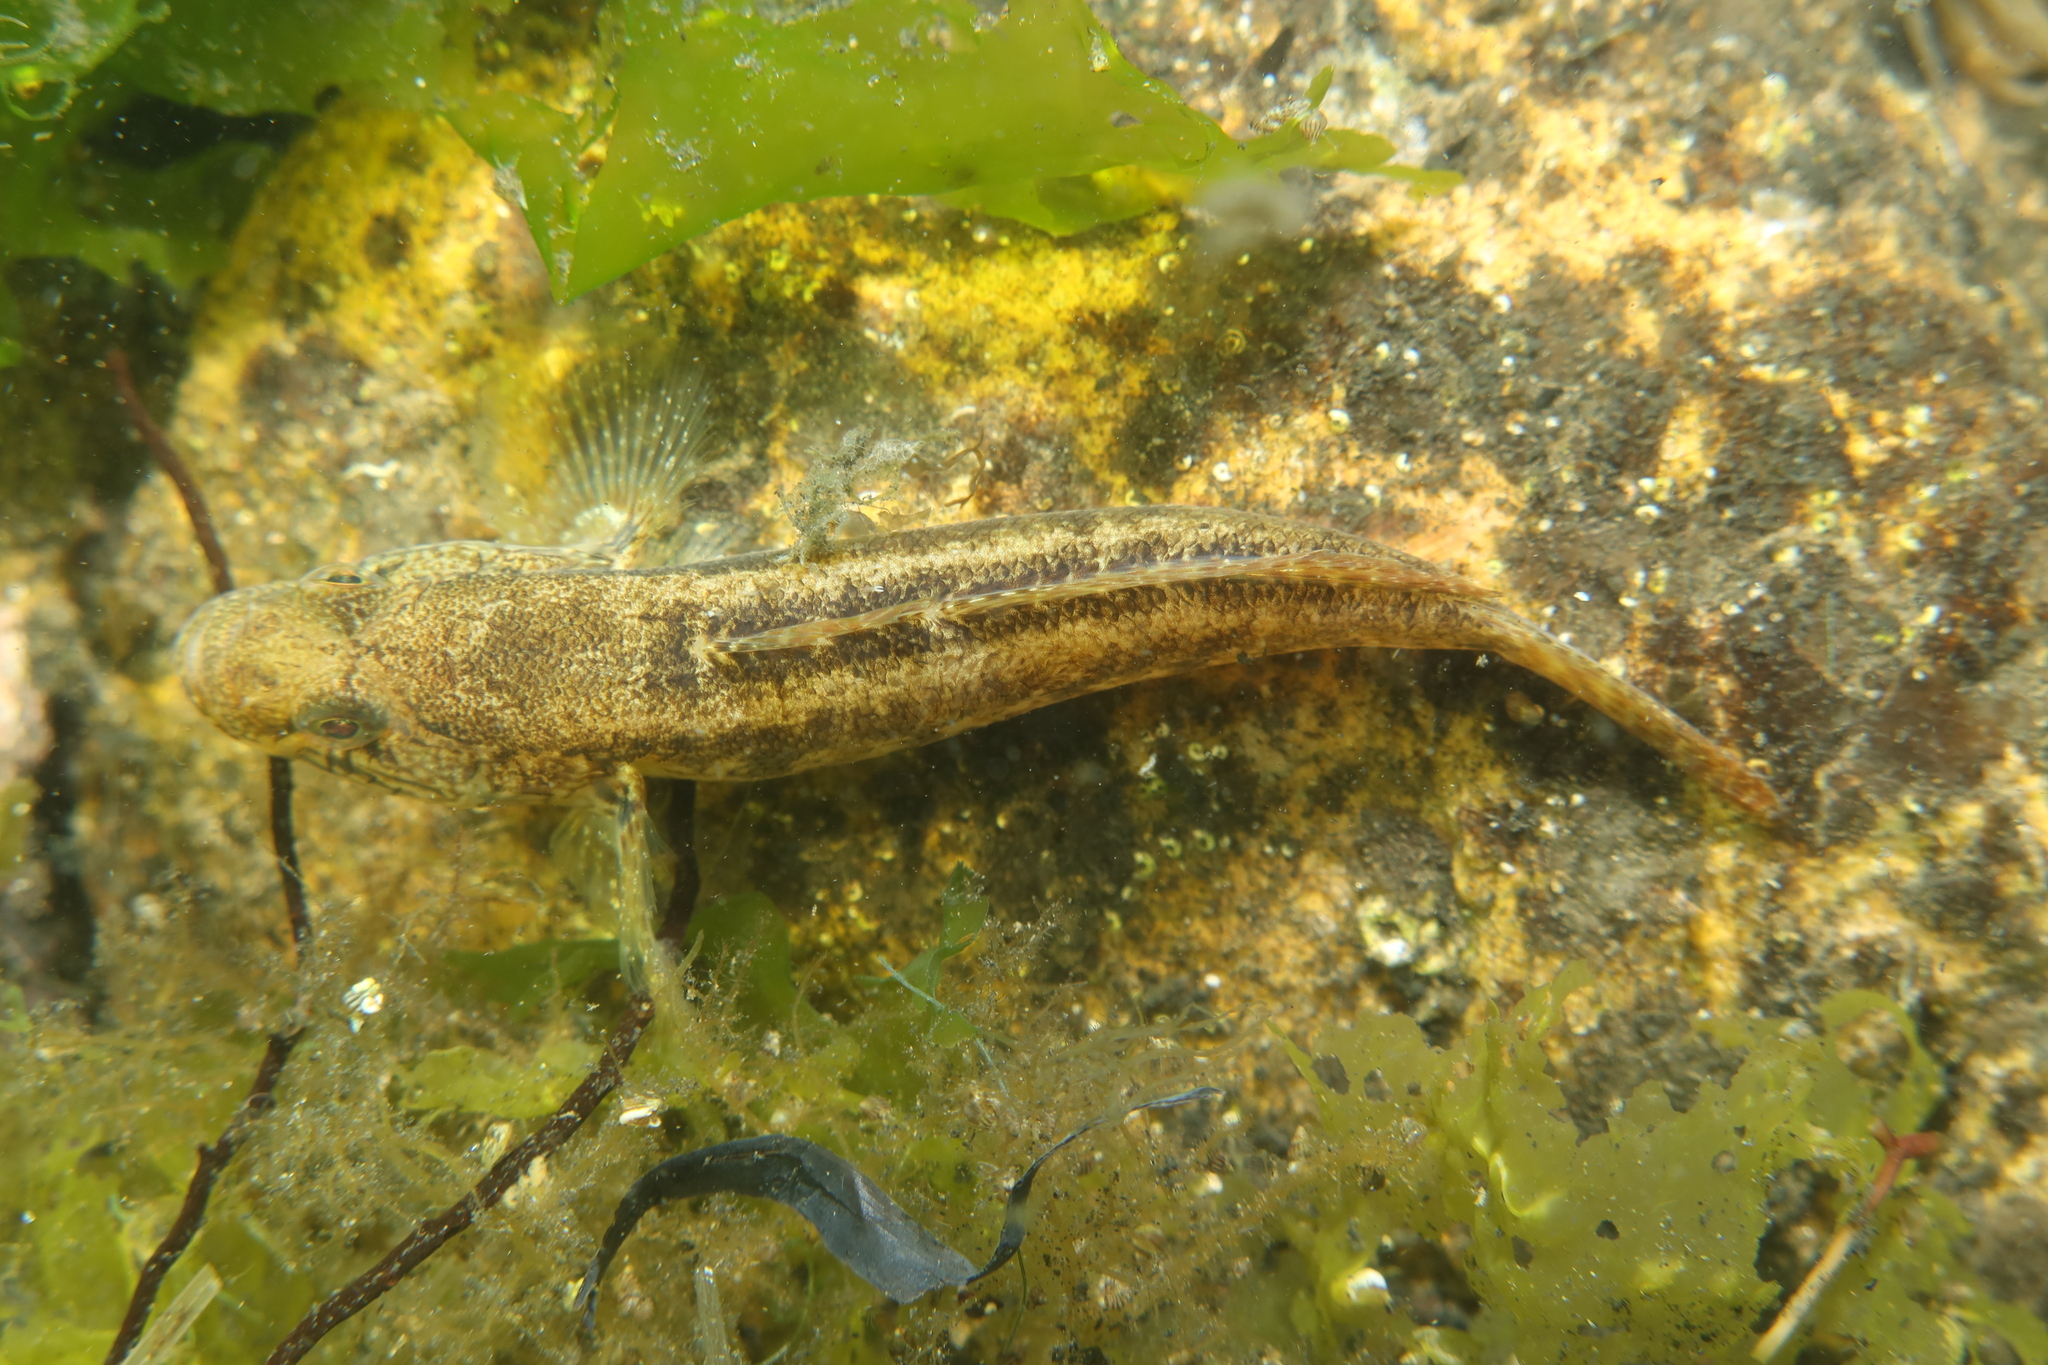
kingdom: Animalia
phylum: Chordata
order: Perciformes
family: Gobiidae
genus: Zosterisessor
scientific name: Zosterisessor ophiocephalus
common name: Grass goby
